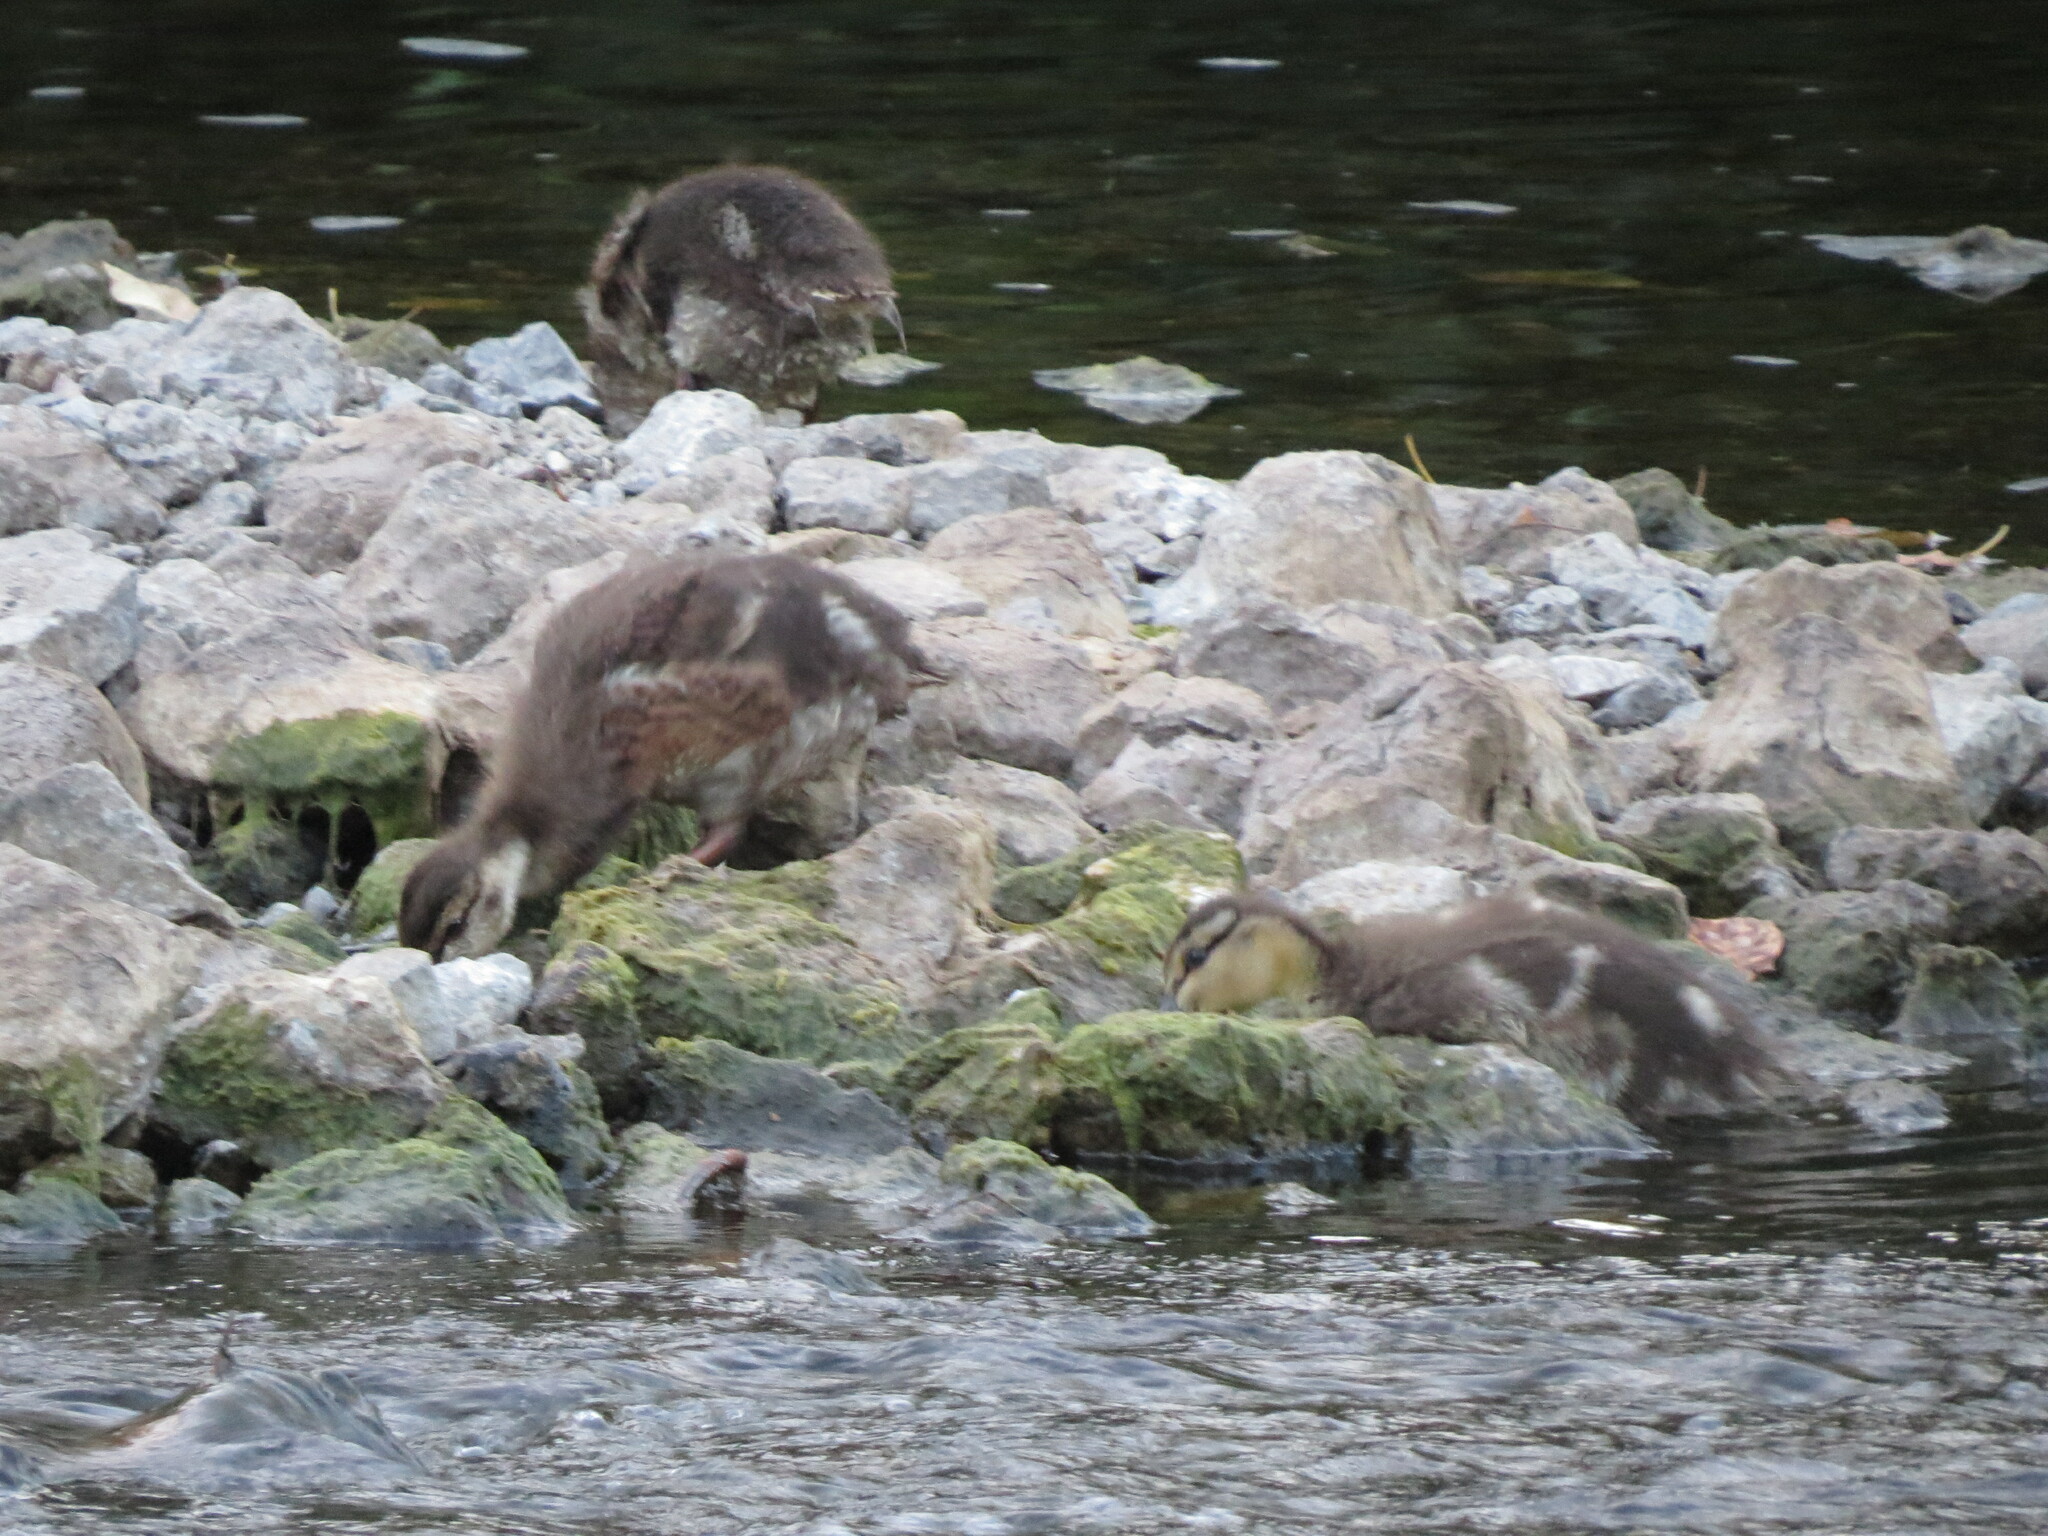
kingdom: Animalia
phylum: Chordata
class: Aves
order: Anseriformes
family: Anatidae
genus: Anas
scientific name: Anas platyrhynchos
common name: Mallard
